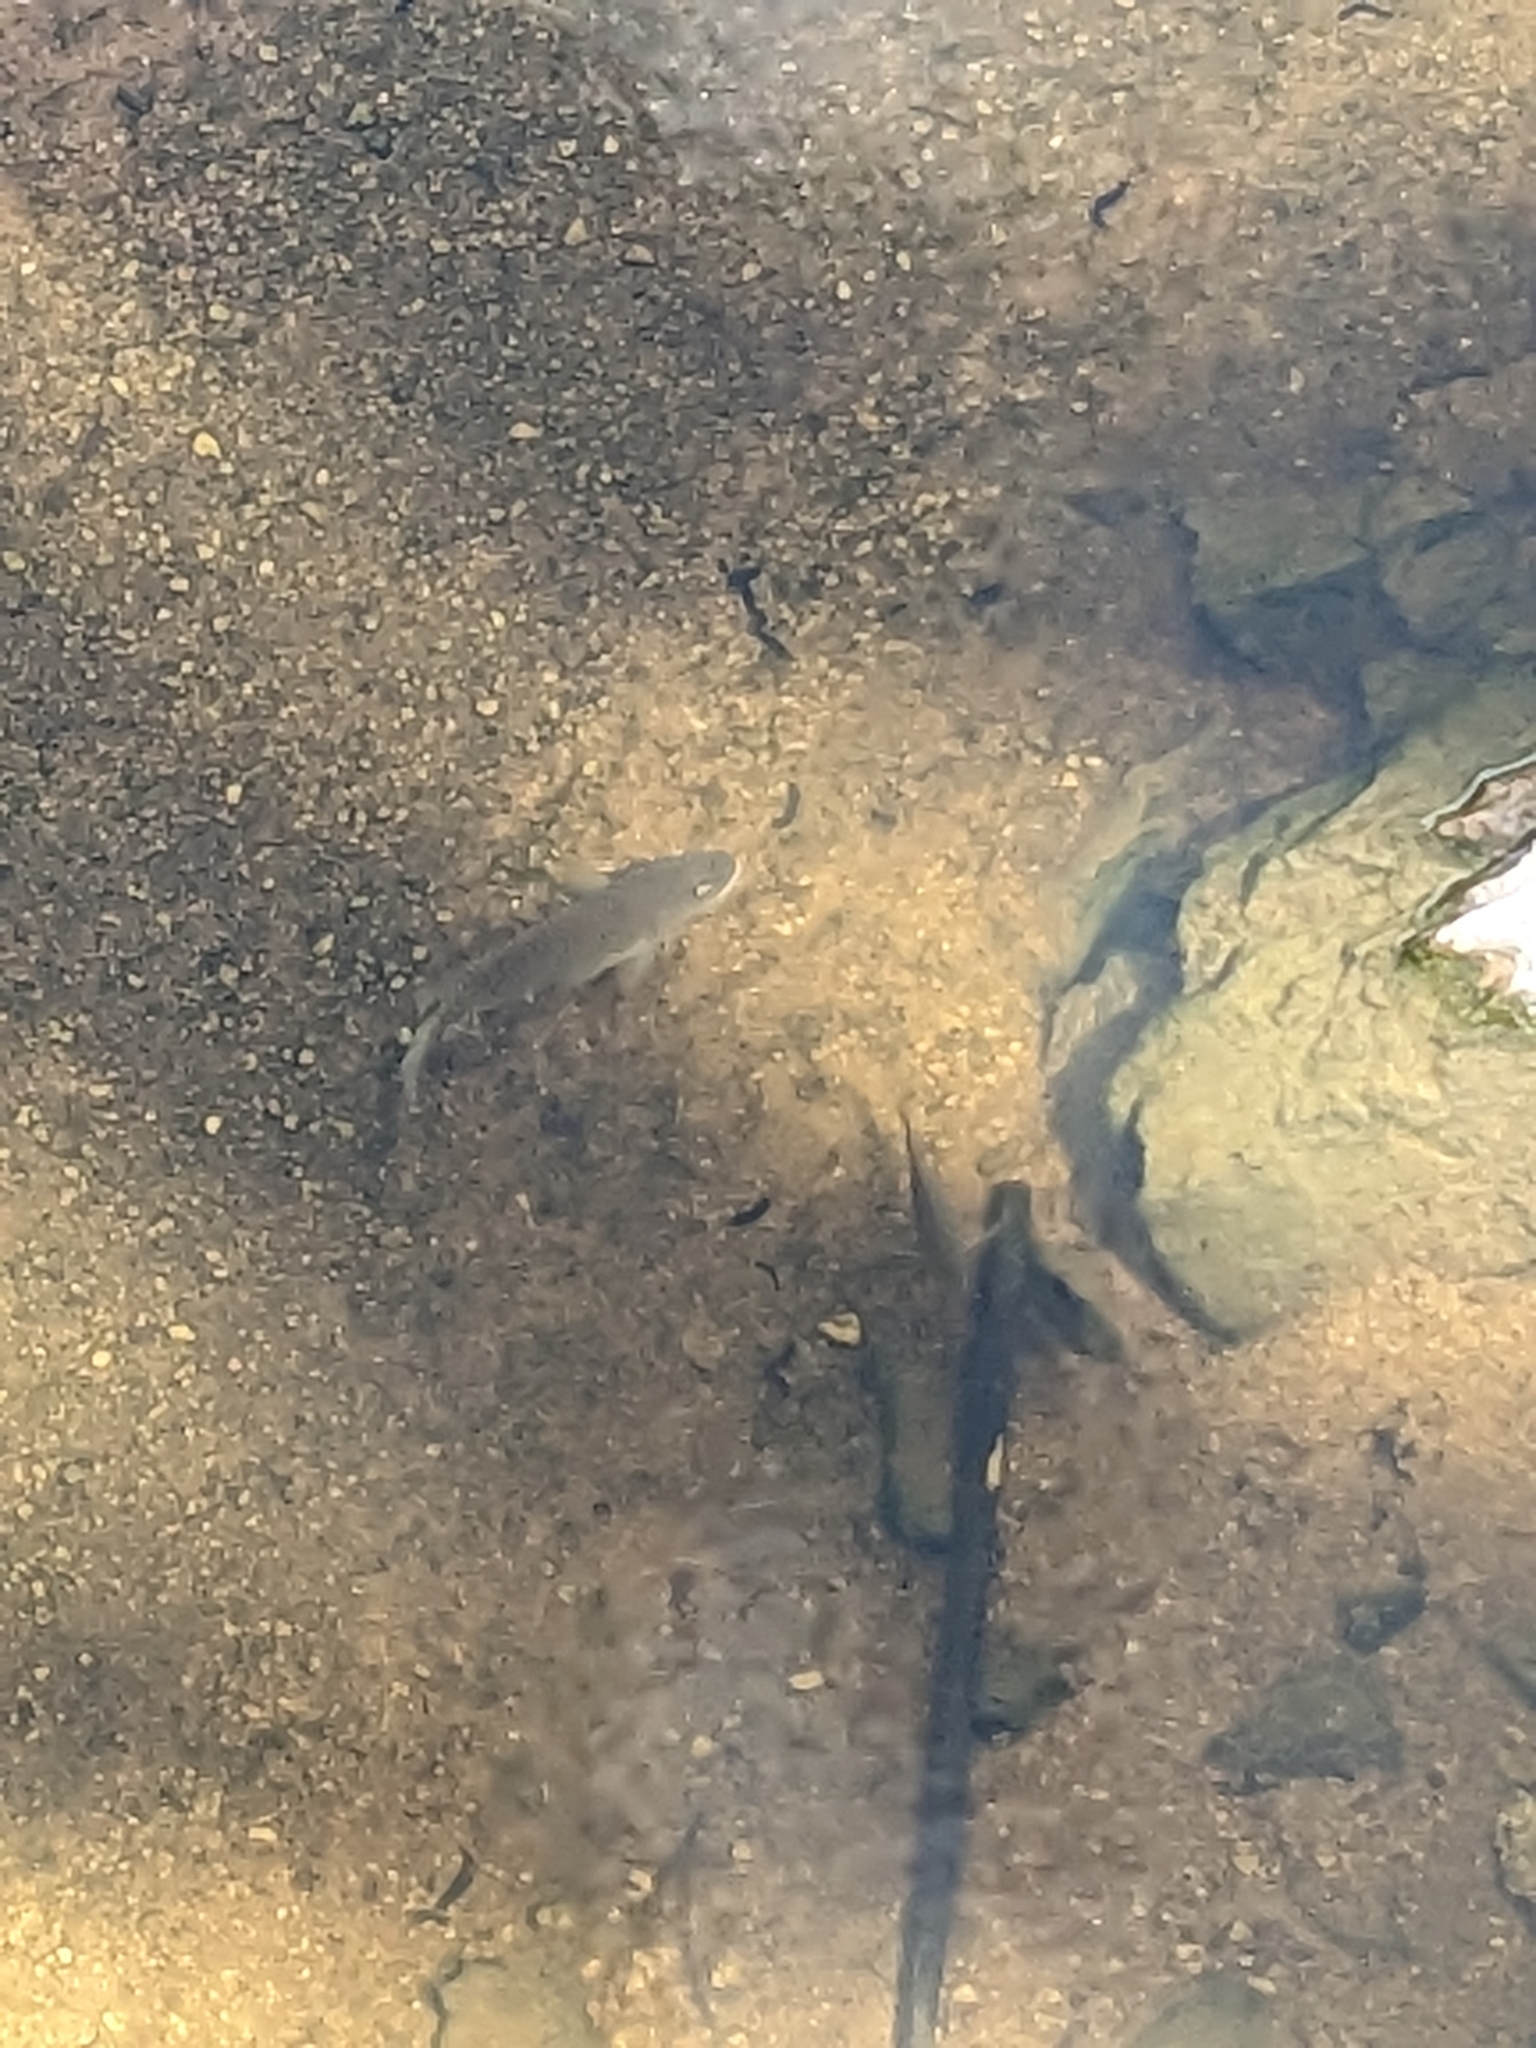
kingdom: Animalia
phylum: Chordata
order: Perciformes
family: Cichlidae
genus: Oreochromis
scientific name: Oreochromis mossambicus
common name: Mozambique tilapia
